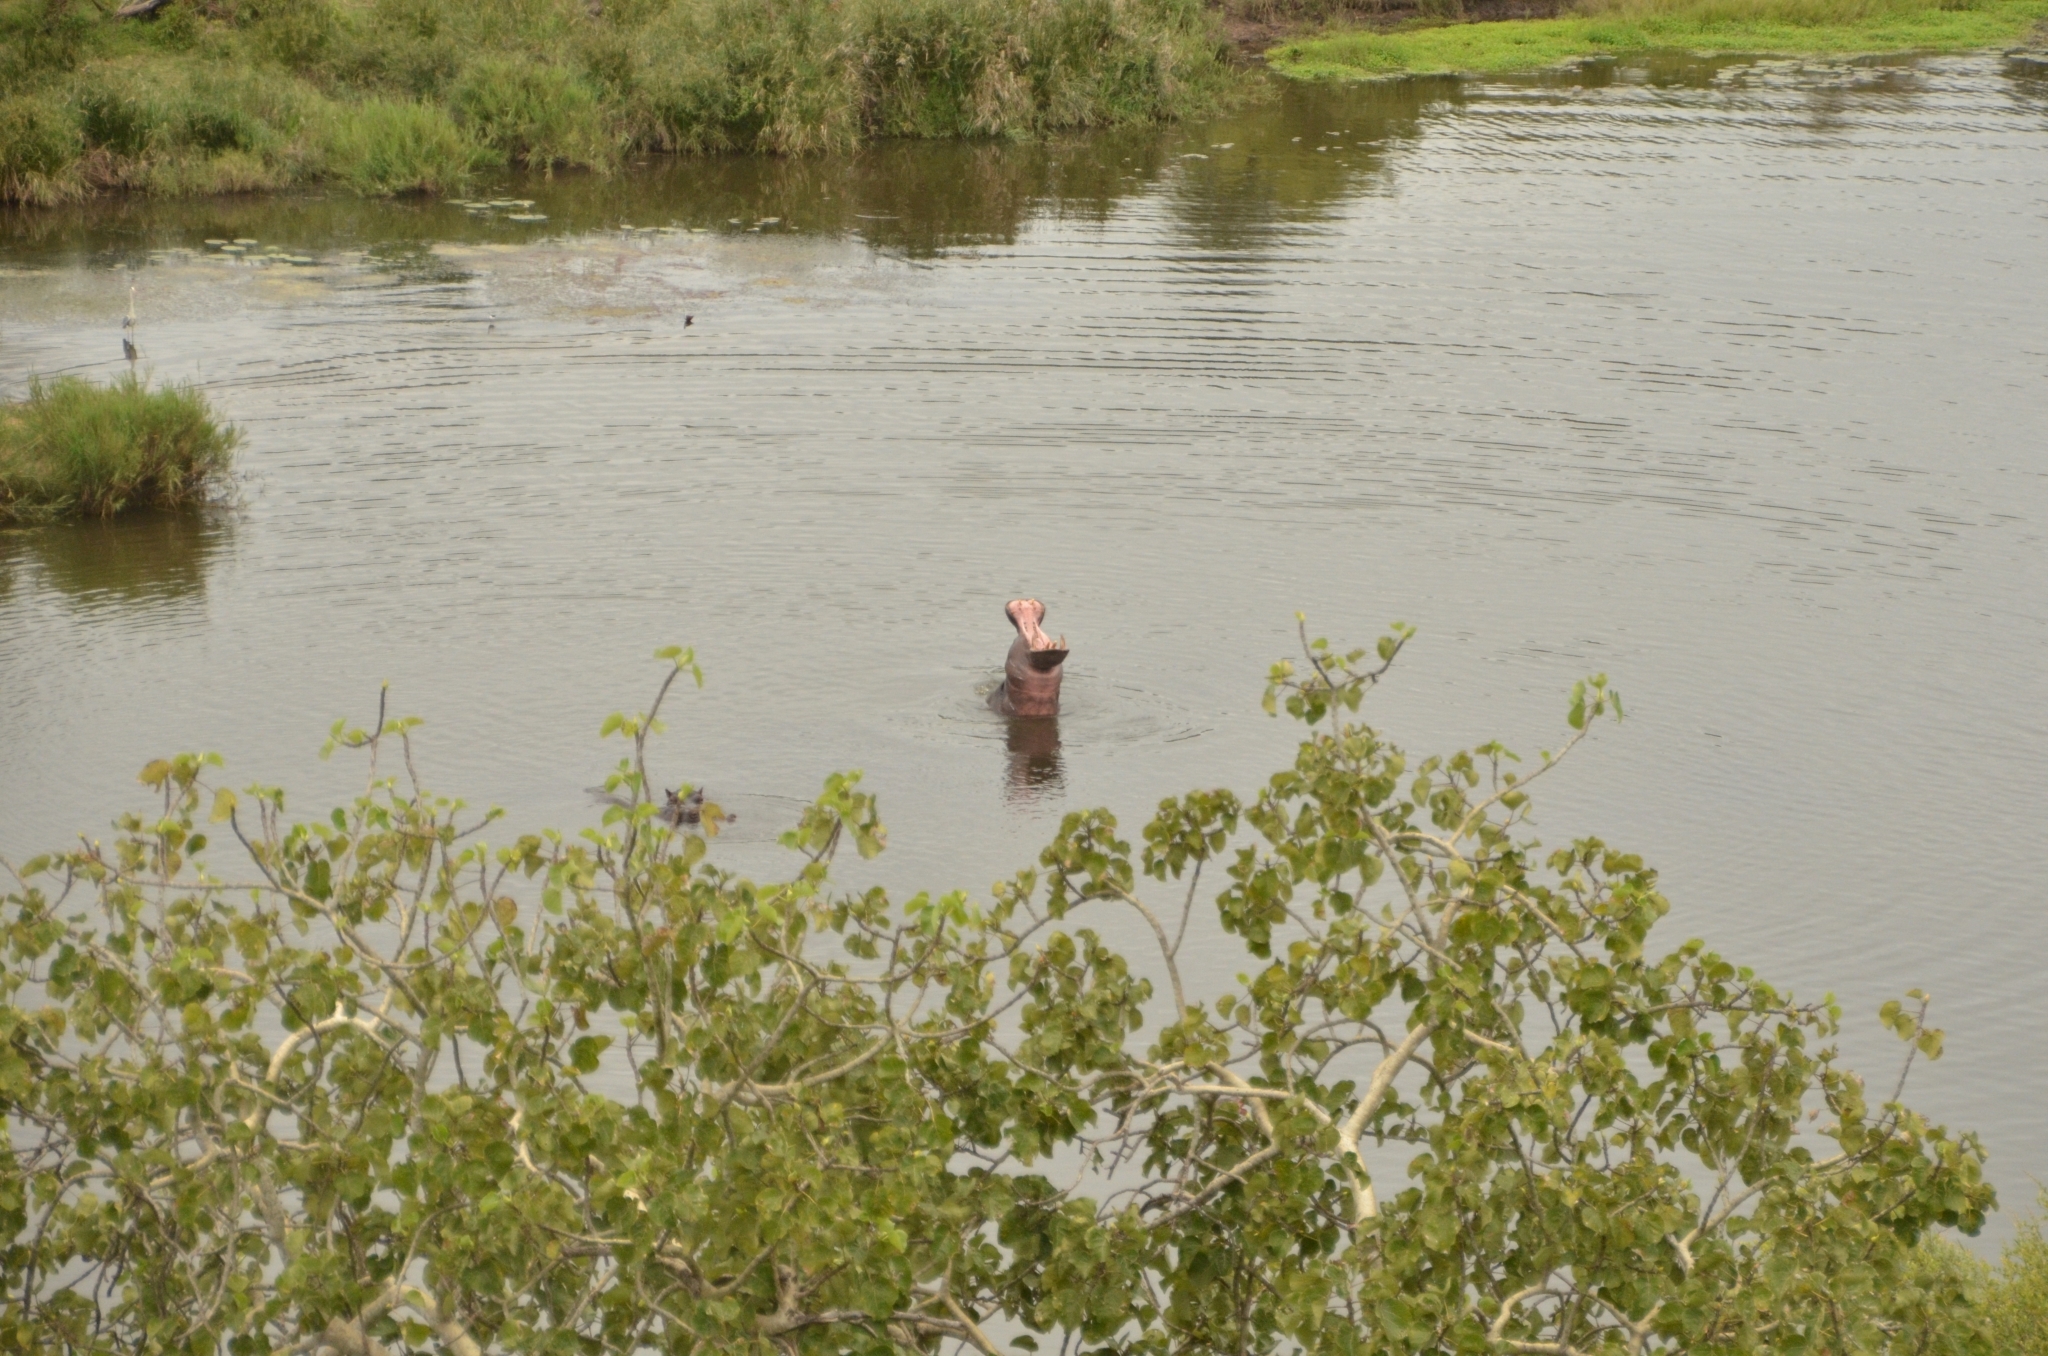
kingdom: Animalia
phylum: Chordata
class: Mammalia
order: Artiodactyla
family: Hippopotamidae
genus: Hippopotamus
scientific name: Hippopotamus amphibius
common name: Common hippopotamus
